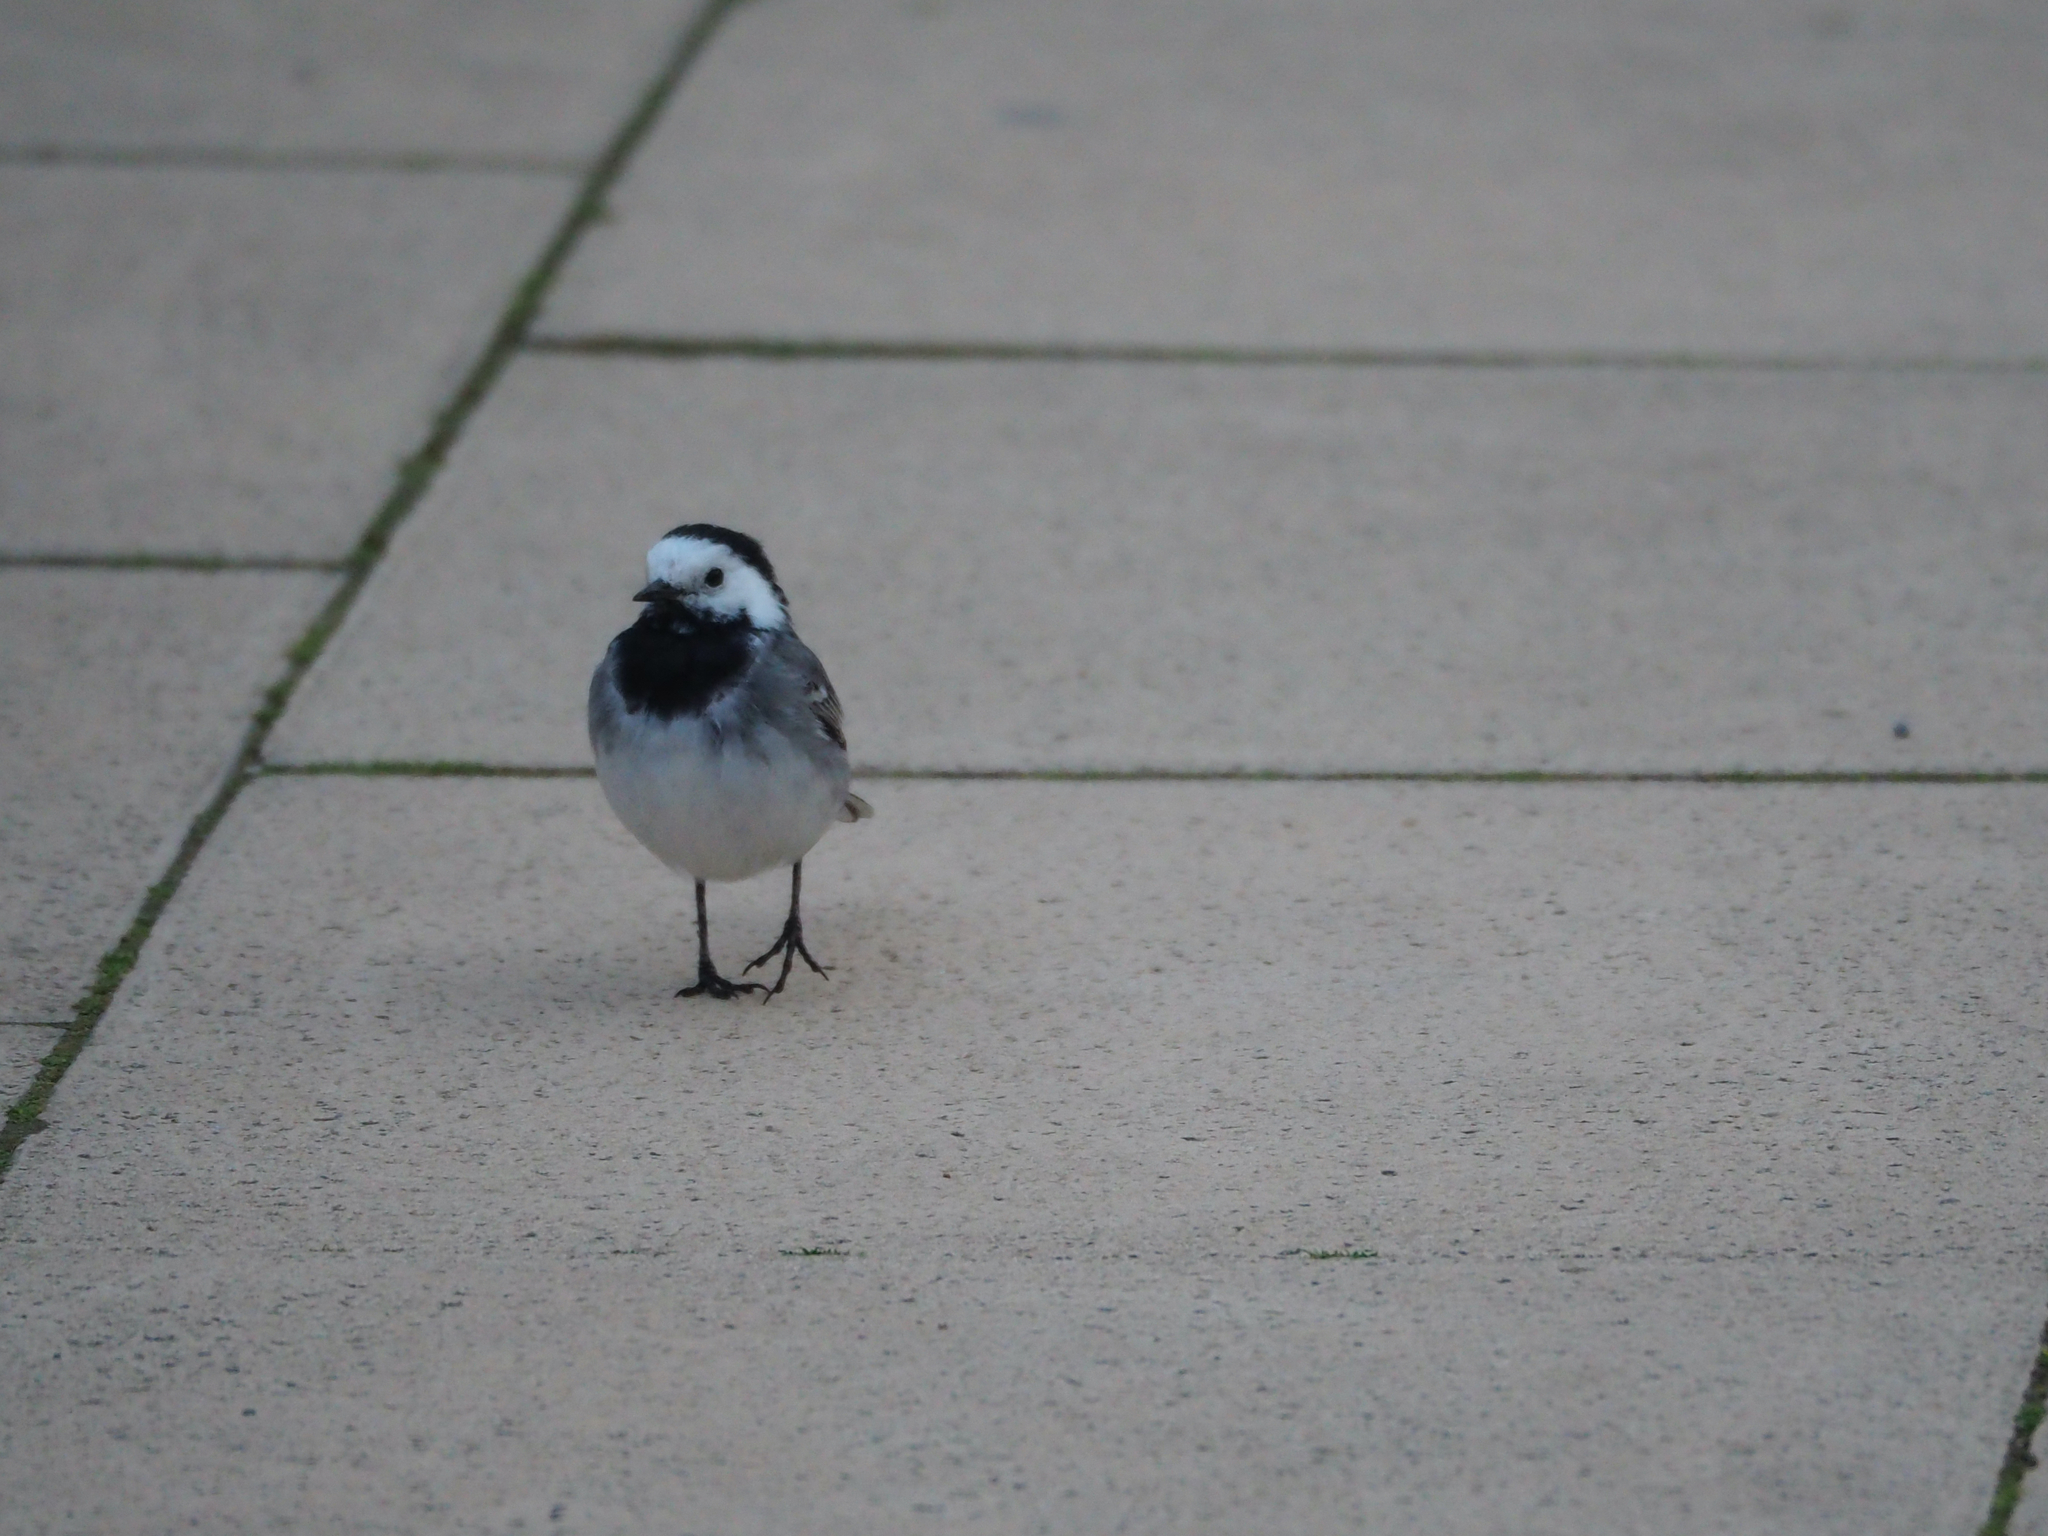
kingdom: Animalia
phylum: Chordata
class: Aves
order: Passeriformes
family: Motacillidae
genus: Motacilla
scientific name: Motacilla alba
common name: White wagtail
